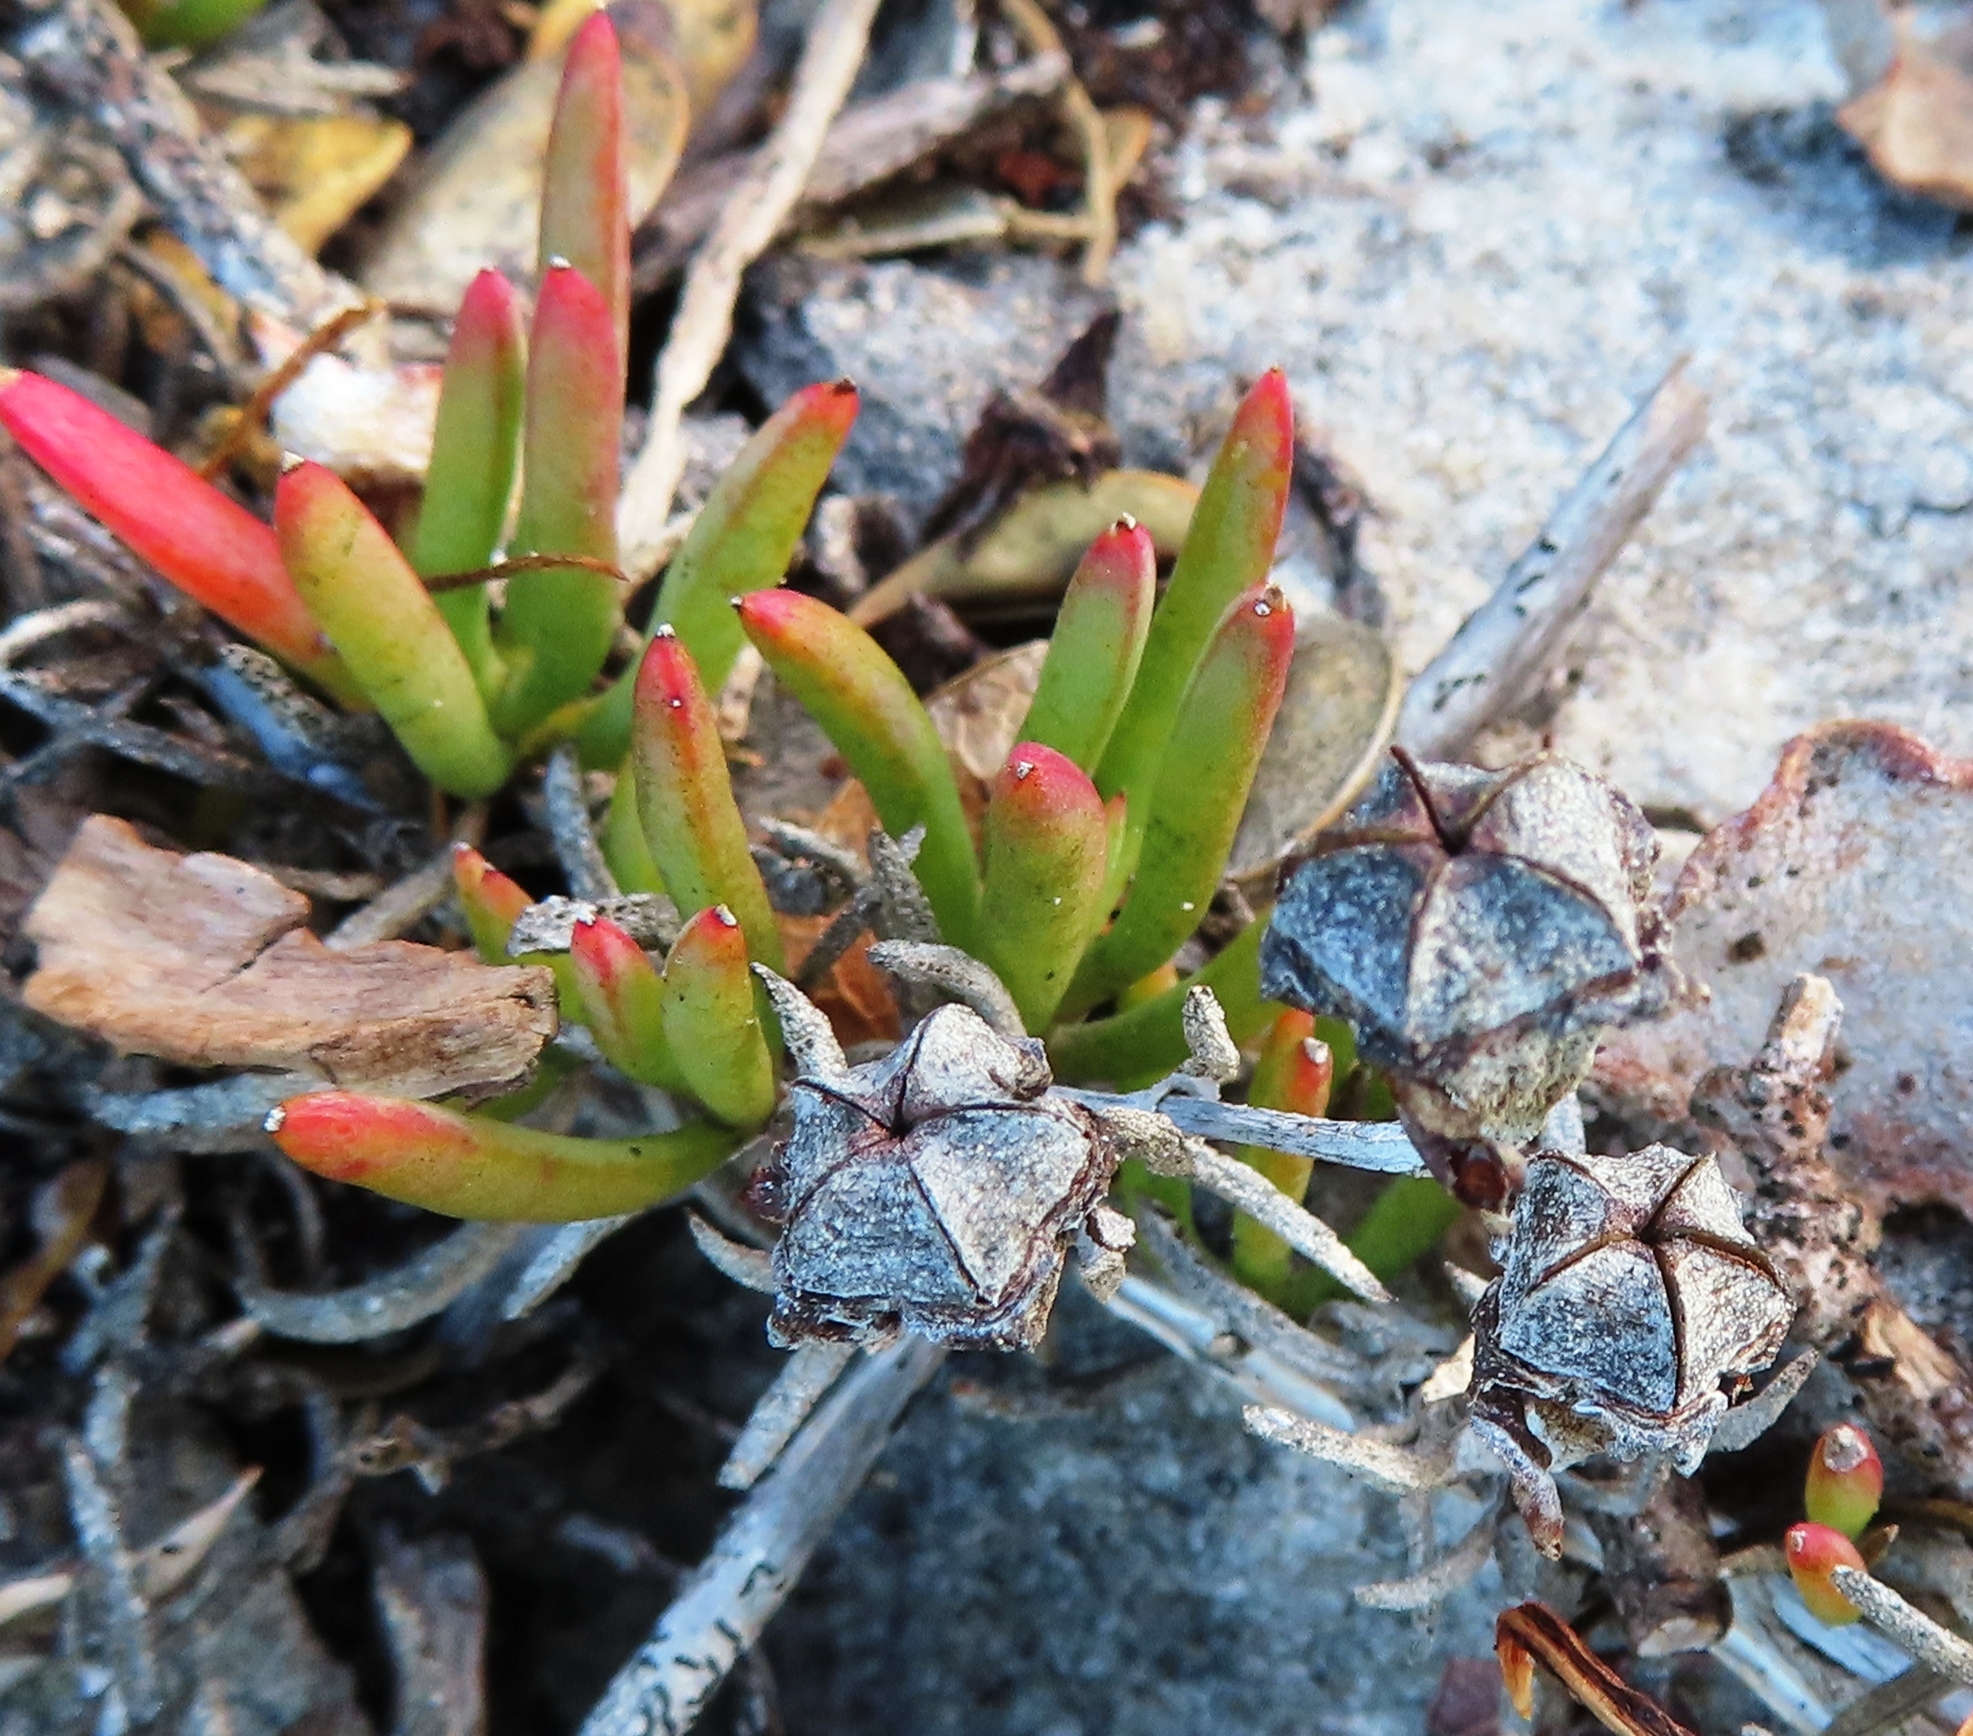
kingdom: Plantae
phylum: Tracheophyta
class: Magnoliopsida
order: Caryophyllales
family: Aizoaceae
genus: Lampranthus
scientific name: Lampranthus ceriseus
